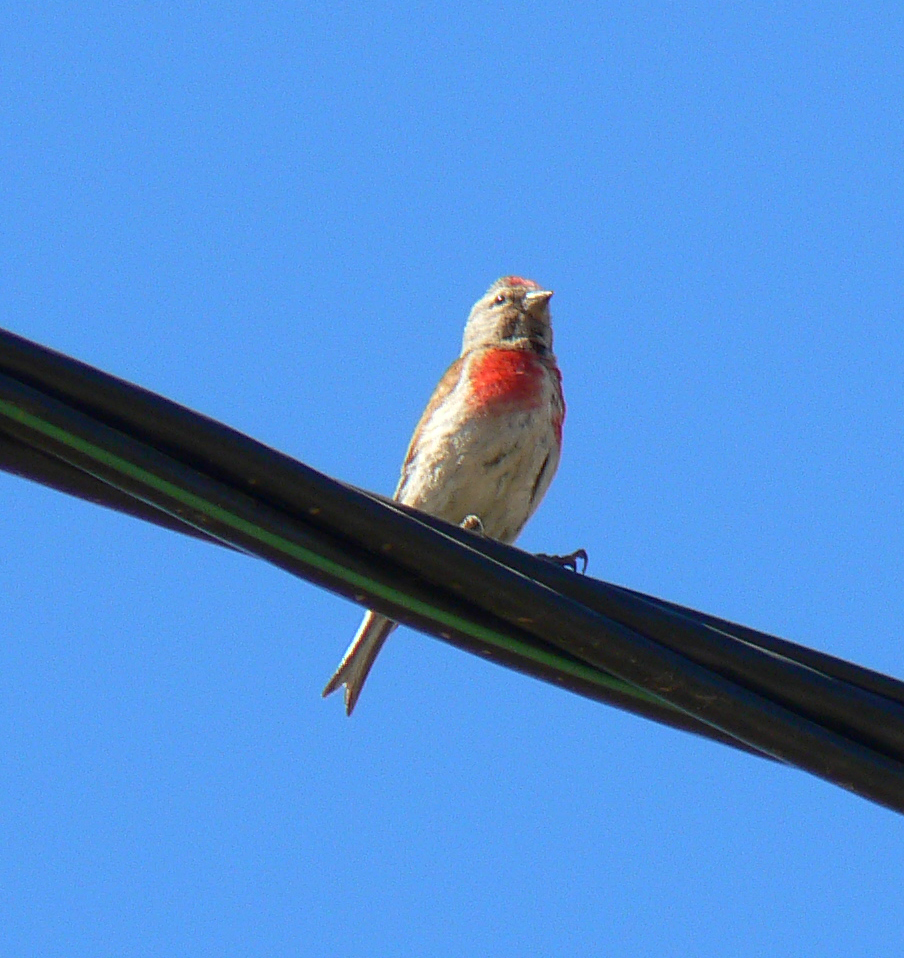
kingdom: Animalia
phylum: Chordata
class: Aves
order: Passeriformes
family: Fringillidae
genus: Linaria
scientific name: Linaria cannabina
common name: Common linnet
